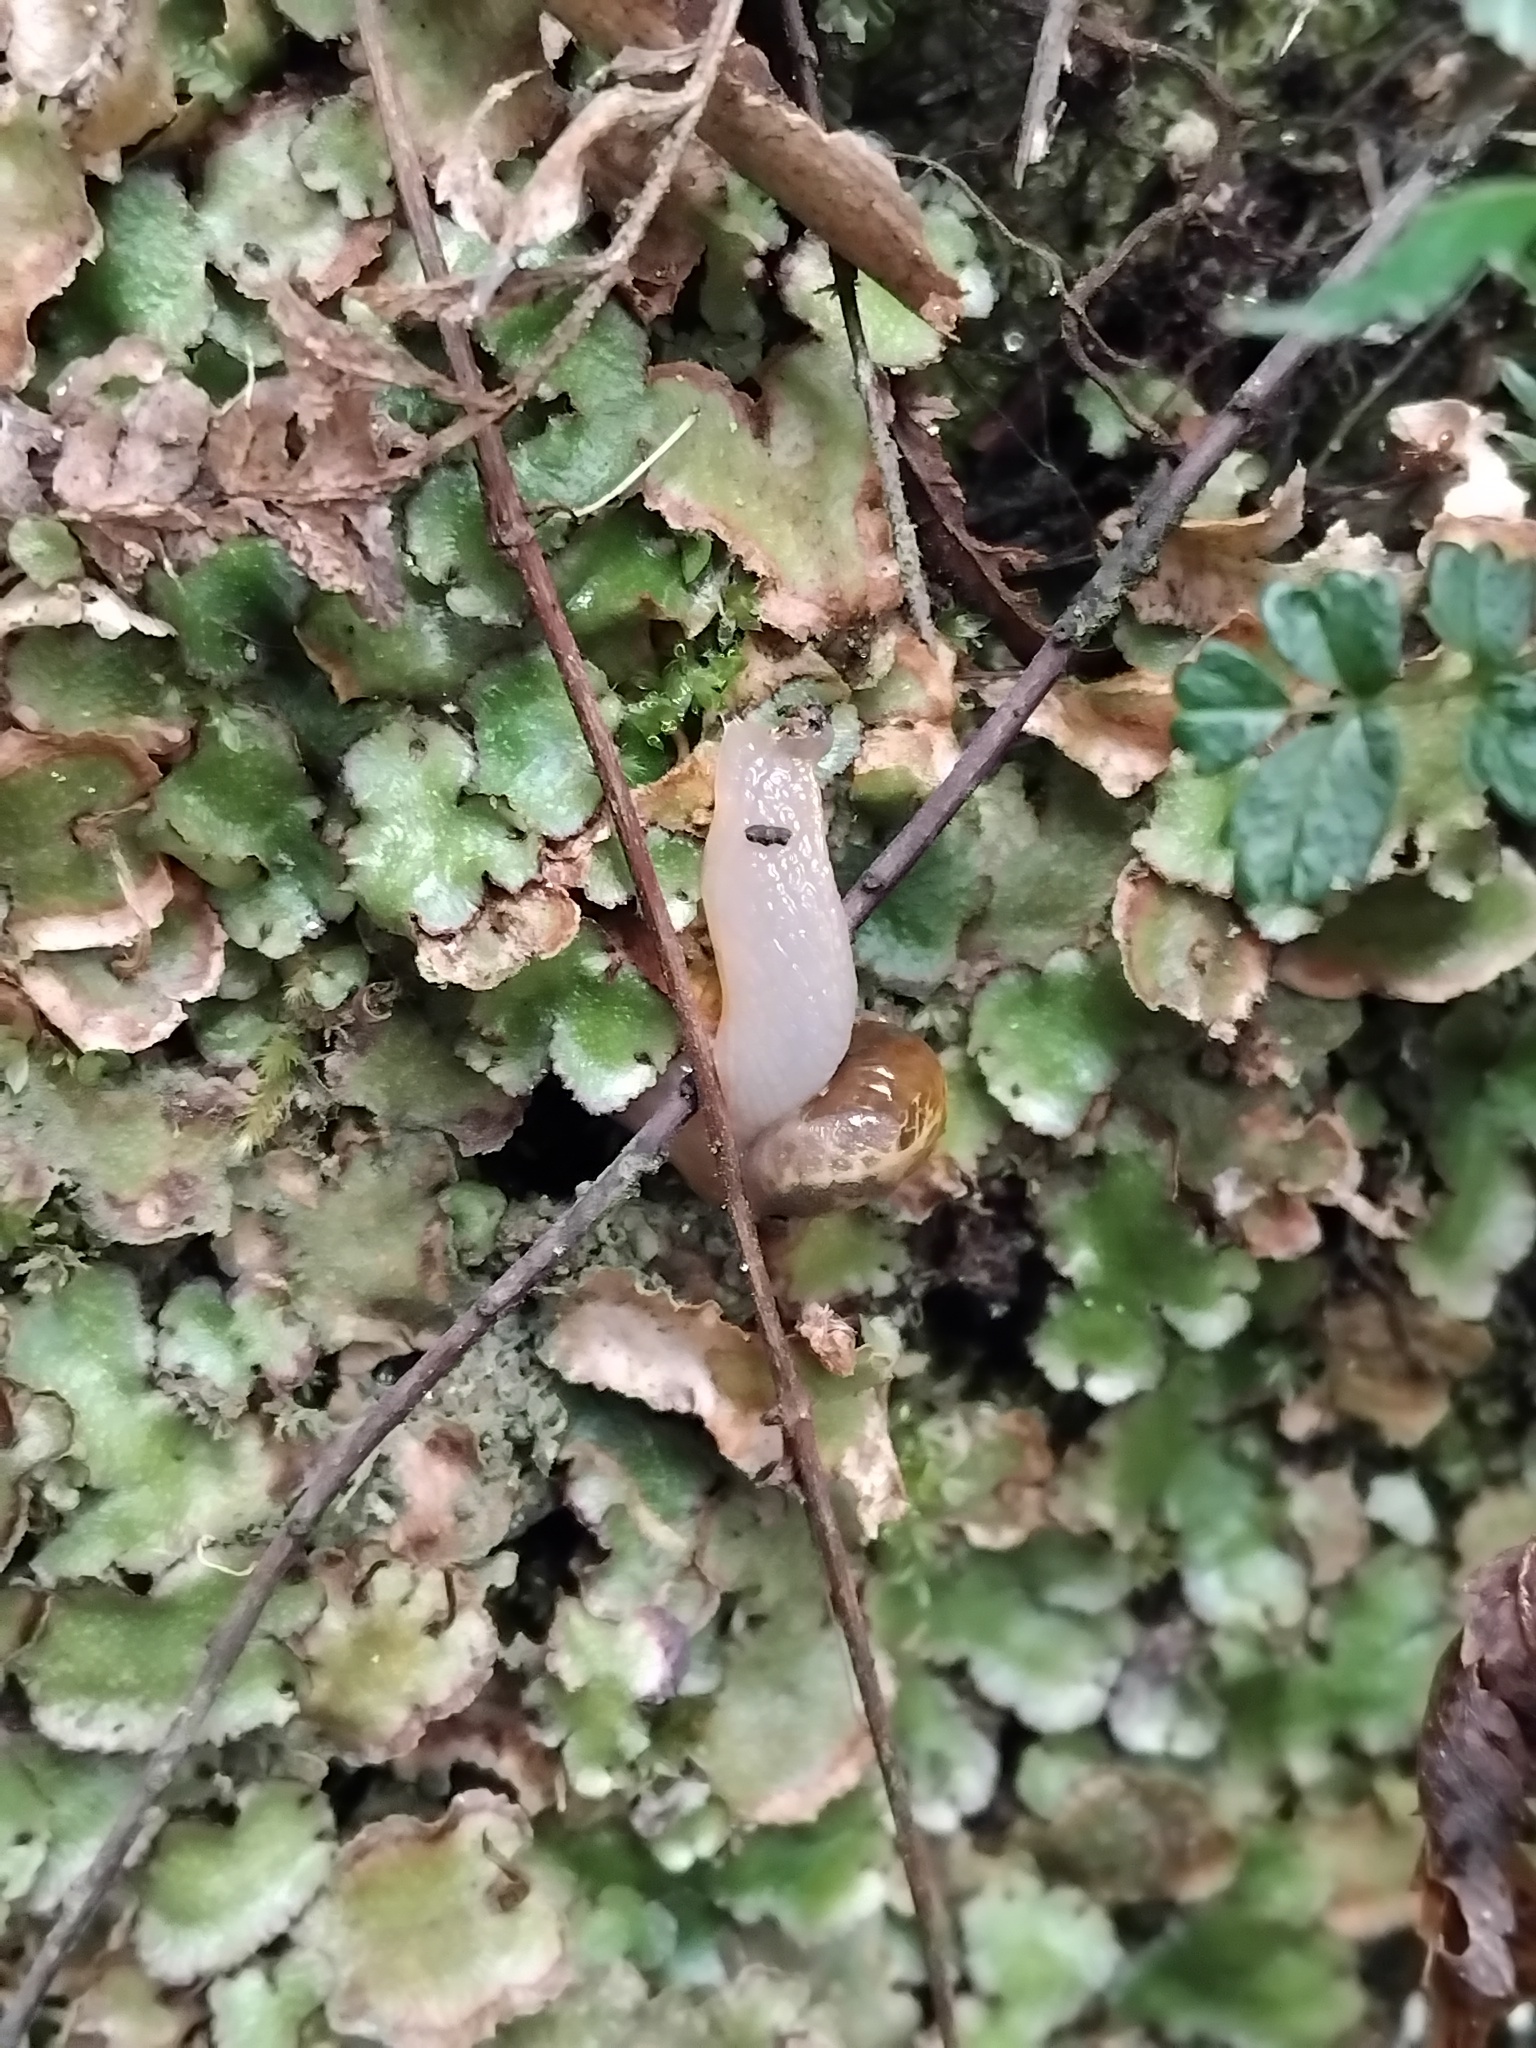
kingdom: Animalia
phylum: Mollusca
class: Gastropoda
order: Stylommatophora
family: Helicarionidae
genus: Mysticarion
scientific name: Mysticarion porrectus
